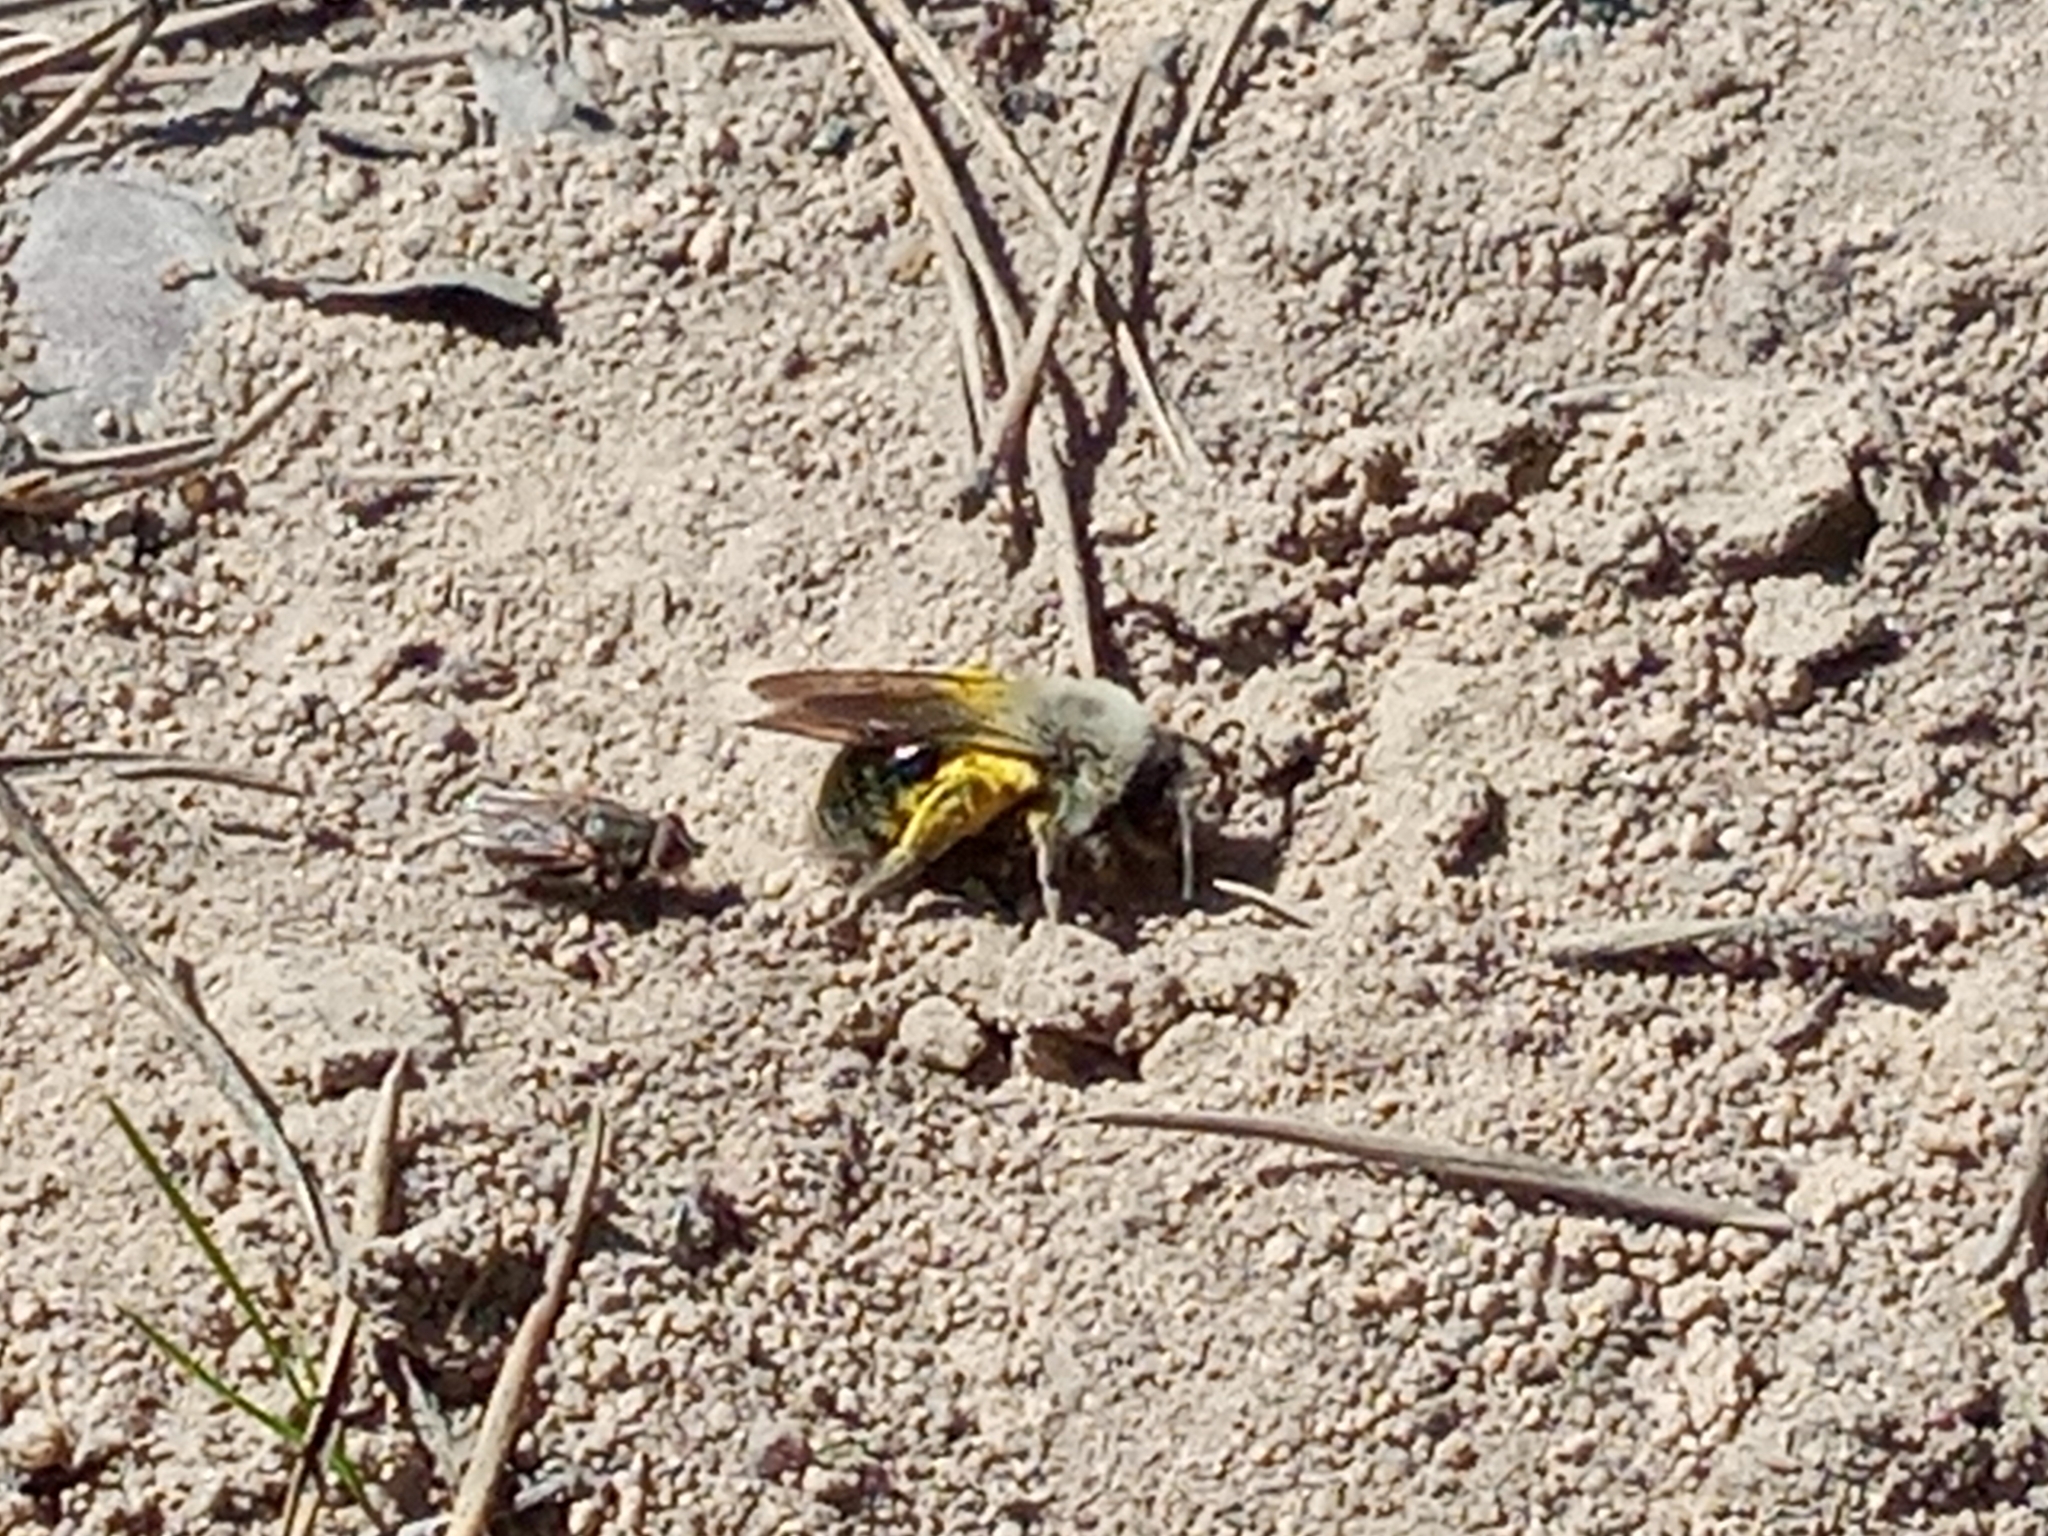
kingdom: Animalia
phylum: Arthropoda
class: Insecta
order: Hymenoptera
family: Andrenidae
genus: Andrena
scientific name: Andrena vaga
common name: Grey-backed mining bee
